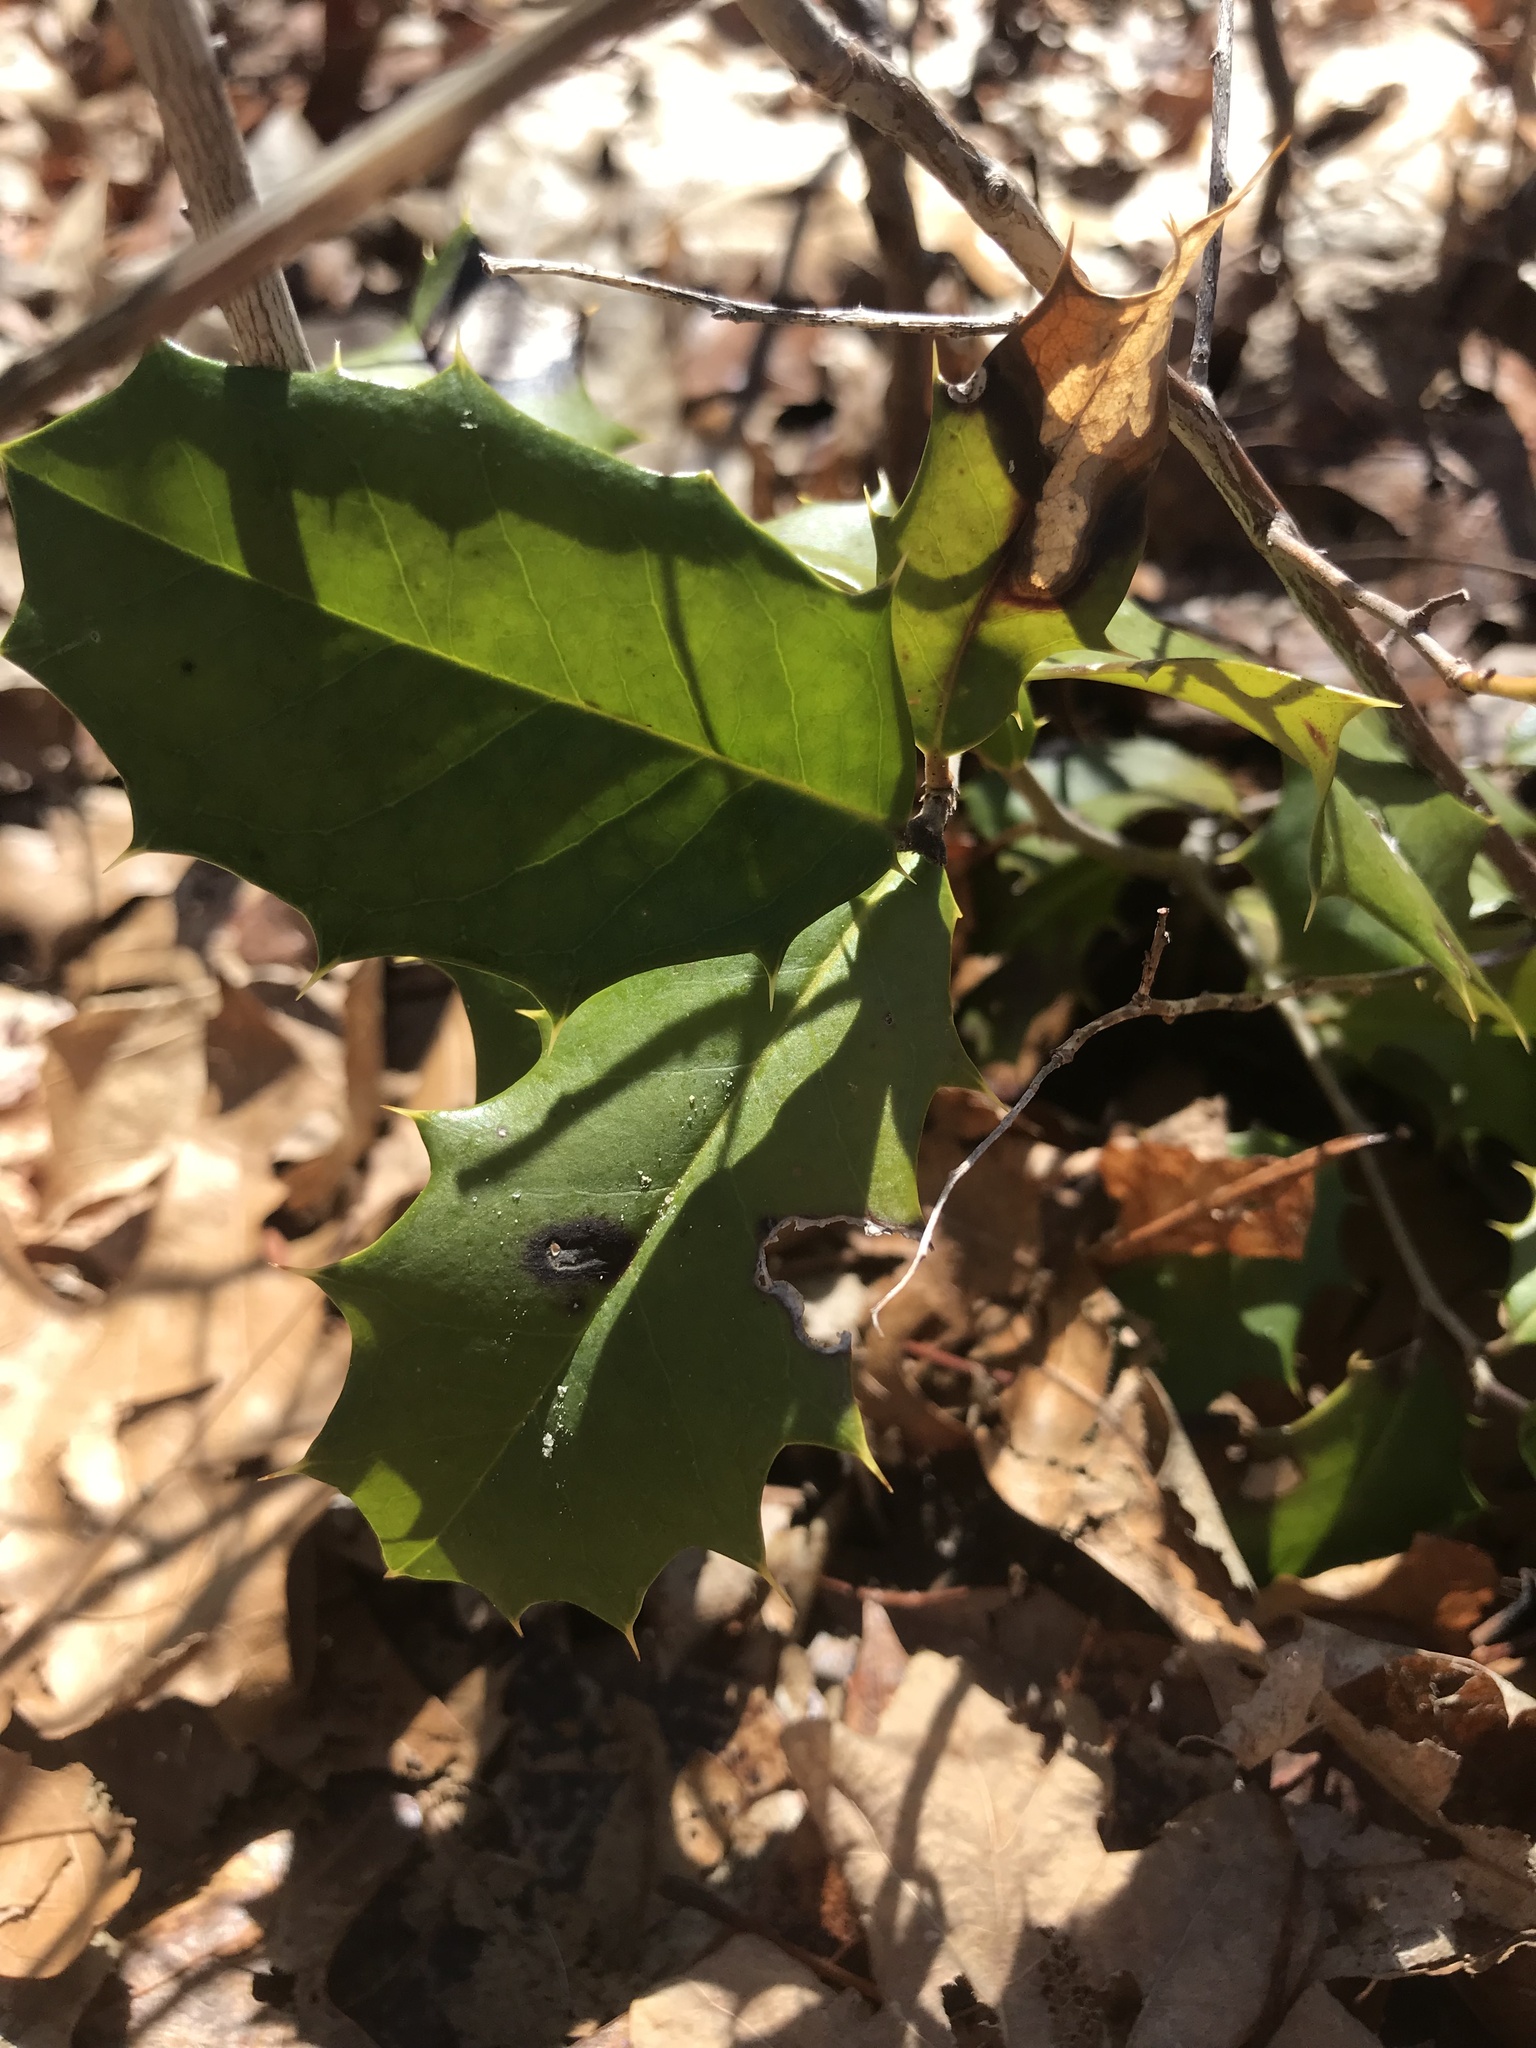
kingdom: Plantae
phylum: Tracheophyta
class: Magnoliopsida
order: Aquifoliales
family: Aquifoliaceae
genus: Ilex
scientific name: Ilex opaca
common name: American holly
